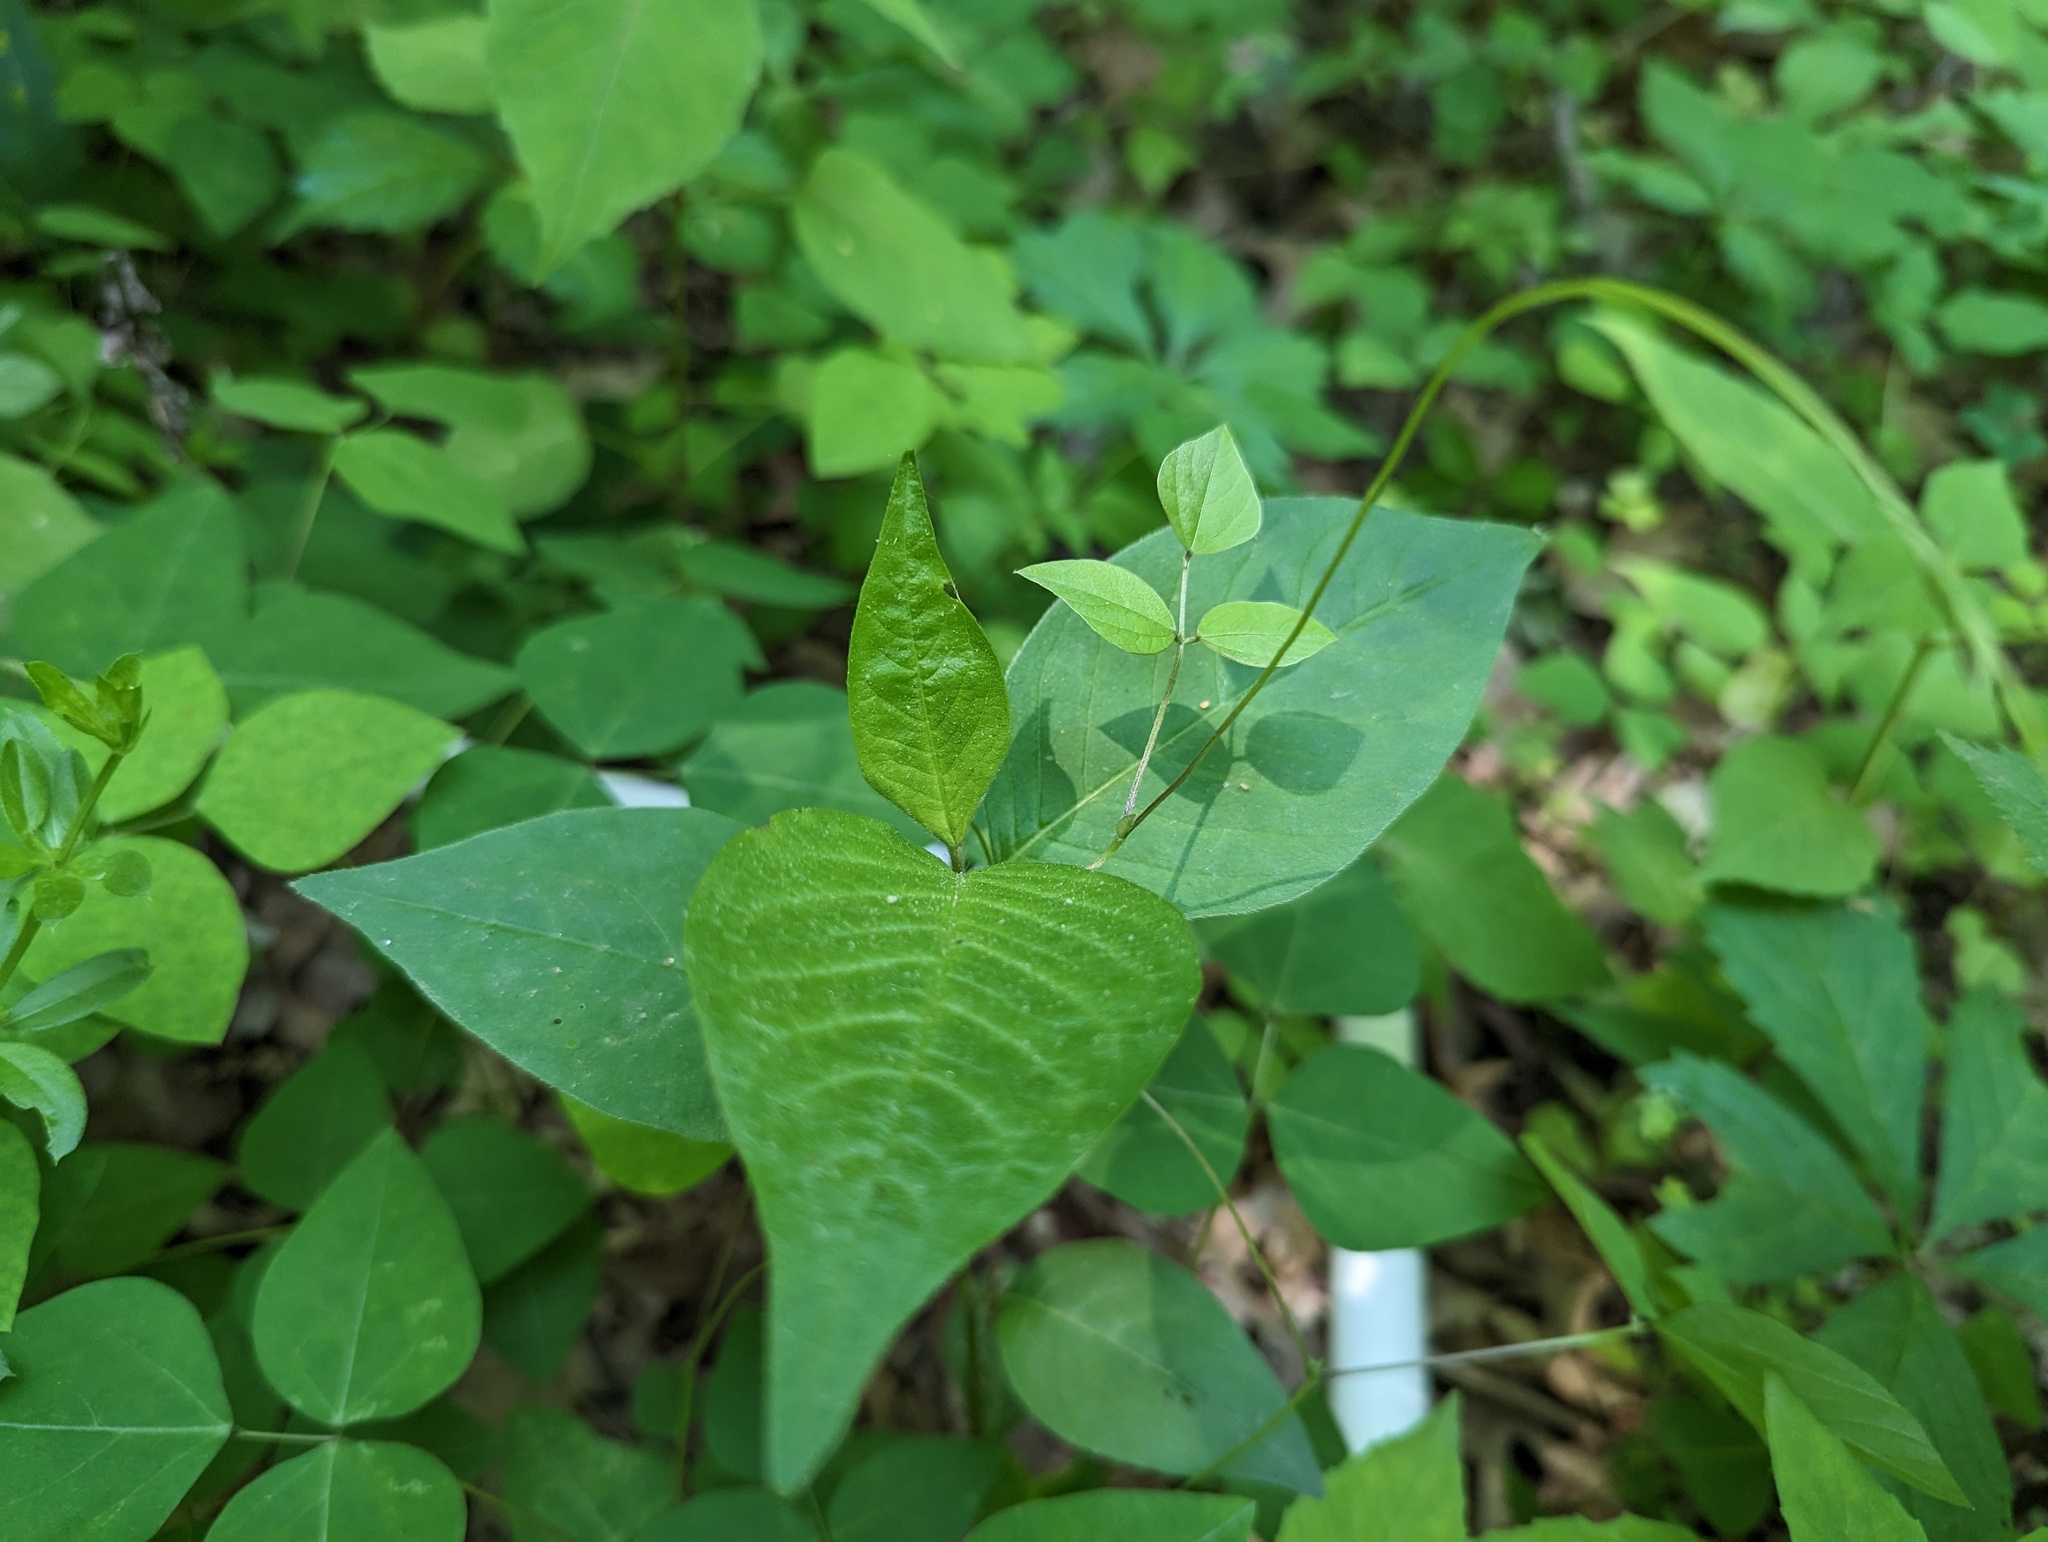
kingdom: Plantae
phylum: Tracheophyta
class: Magnoliopsida
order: Caryophyllales
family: Polygonaceae
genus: Persicaria
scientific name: Persicaria virginiana
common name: Jumpseed
